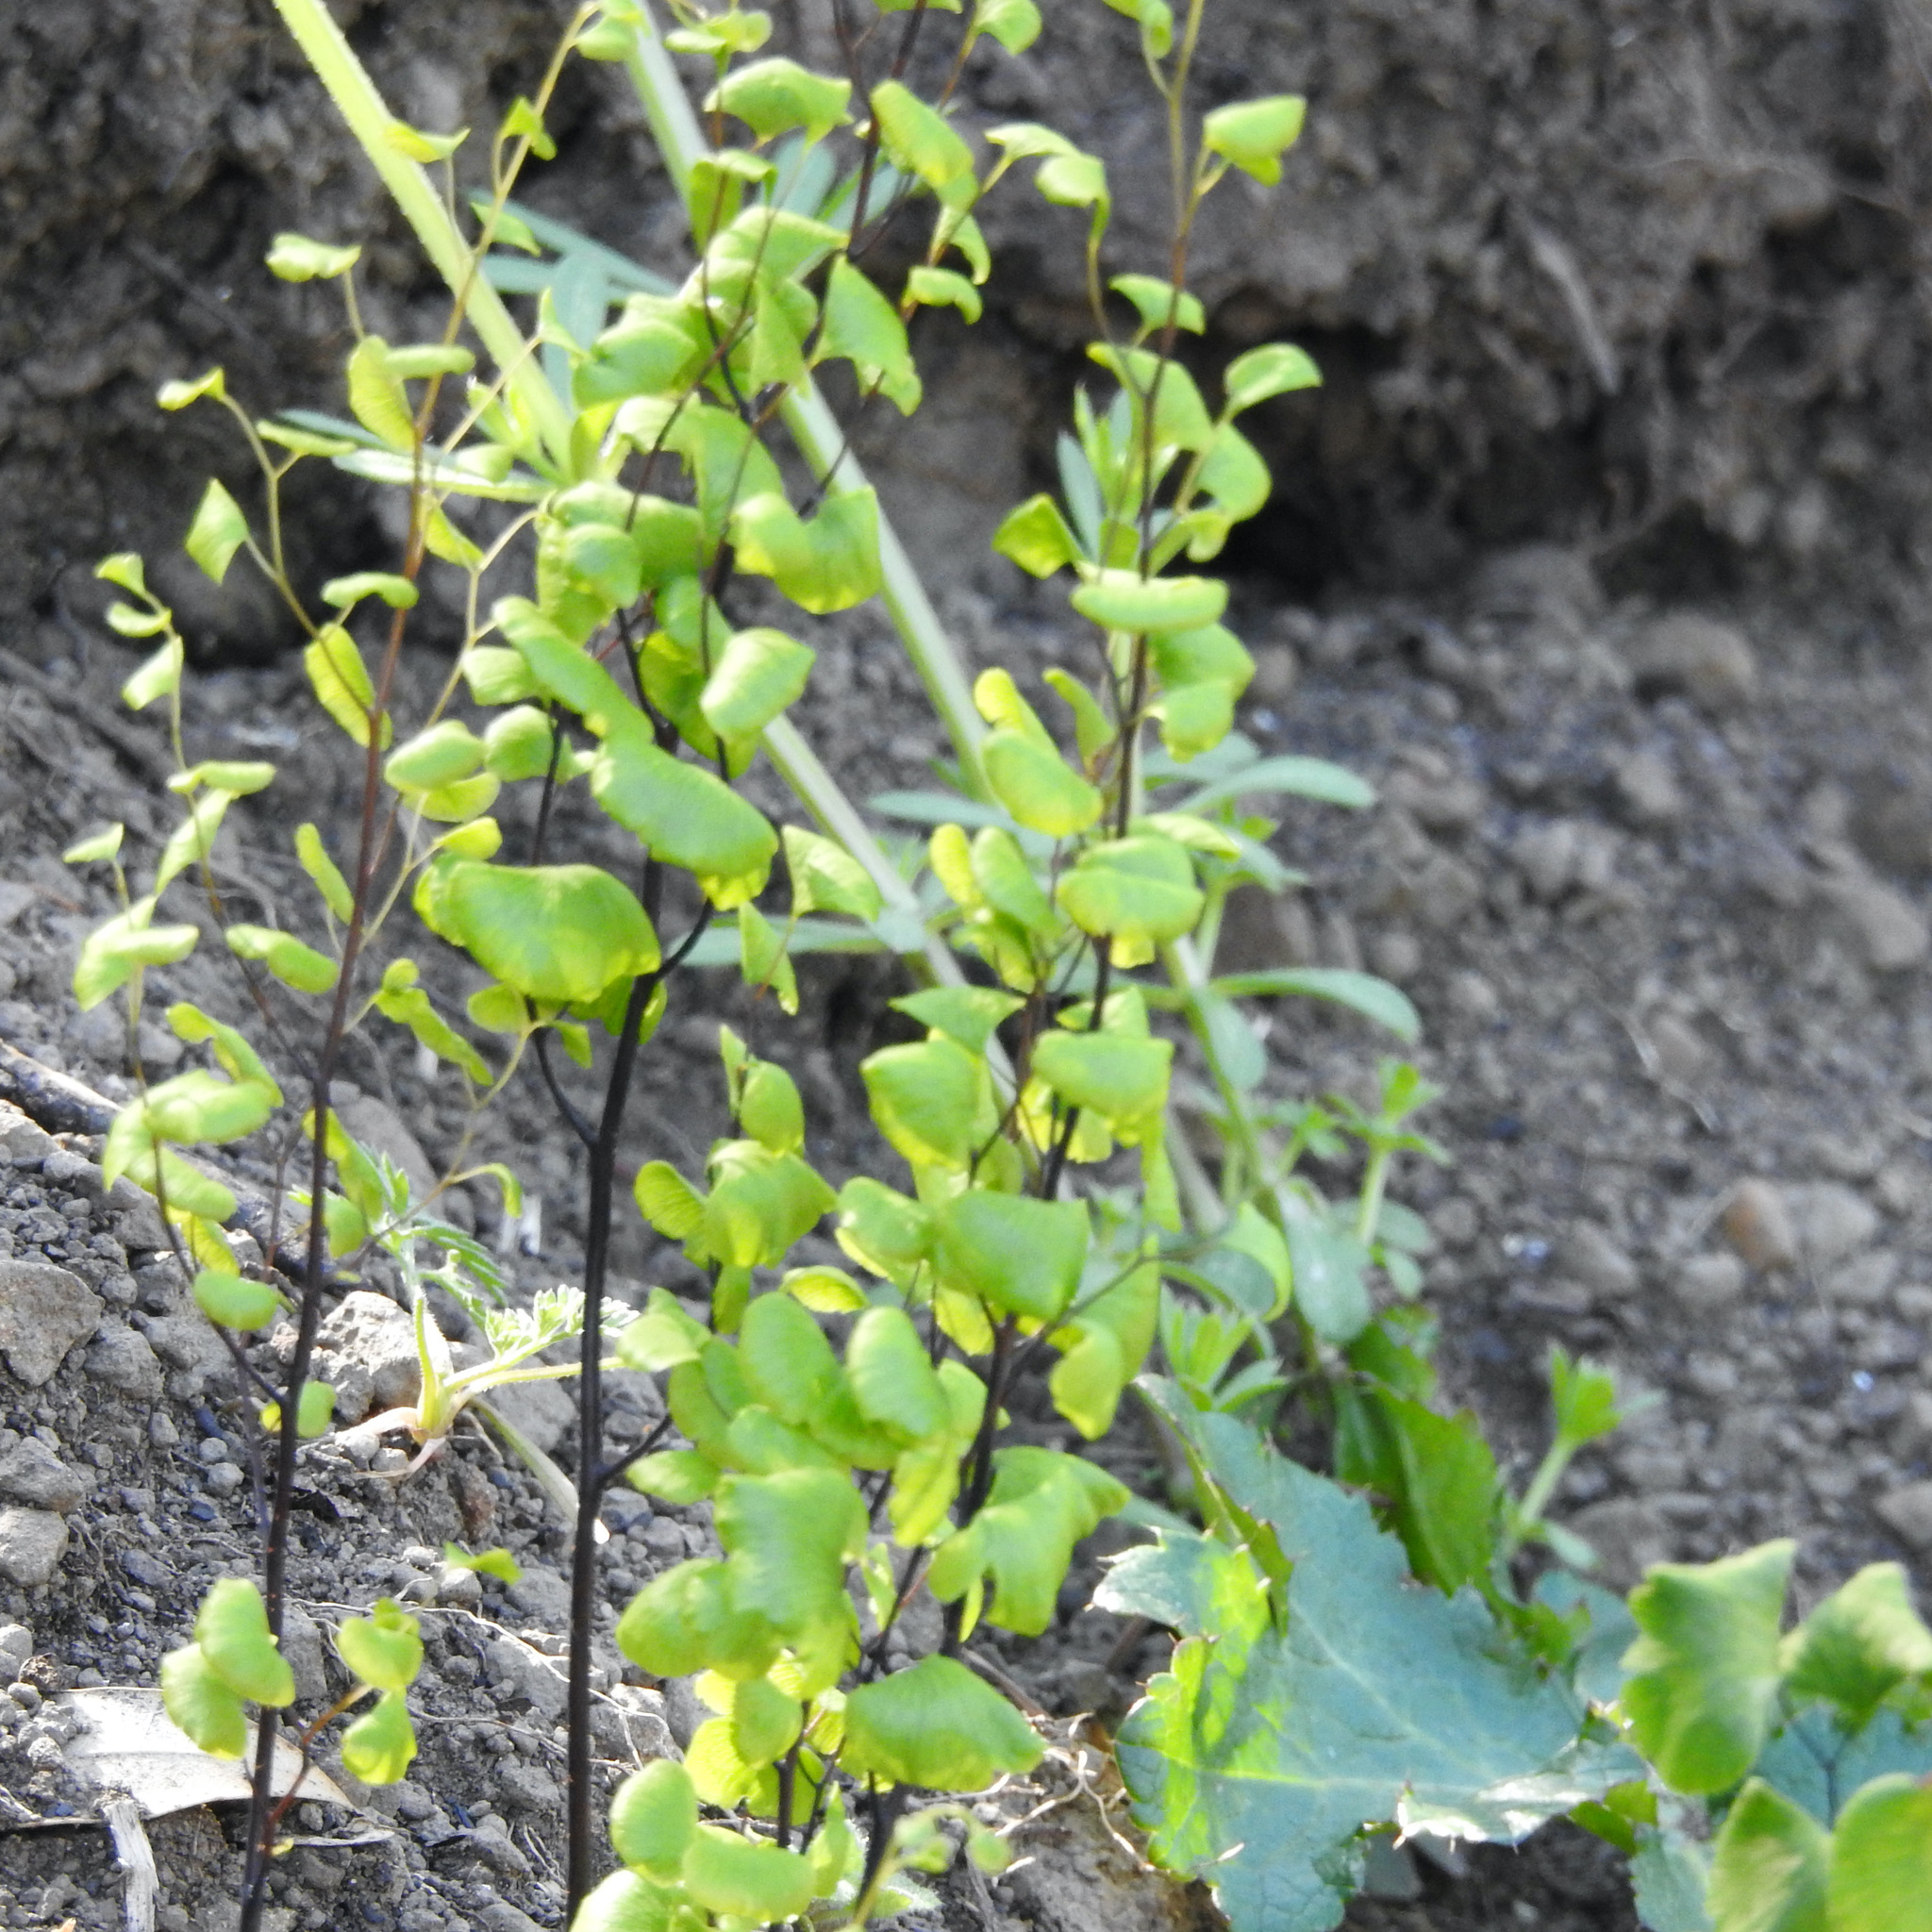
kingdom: Plantae
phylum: Tracheophyta
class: Polypodiopsida
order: Polypodiales
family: Pteridaceae
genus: Adiantum
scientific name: Adiantum jordanii
